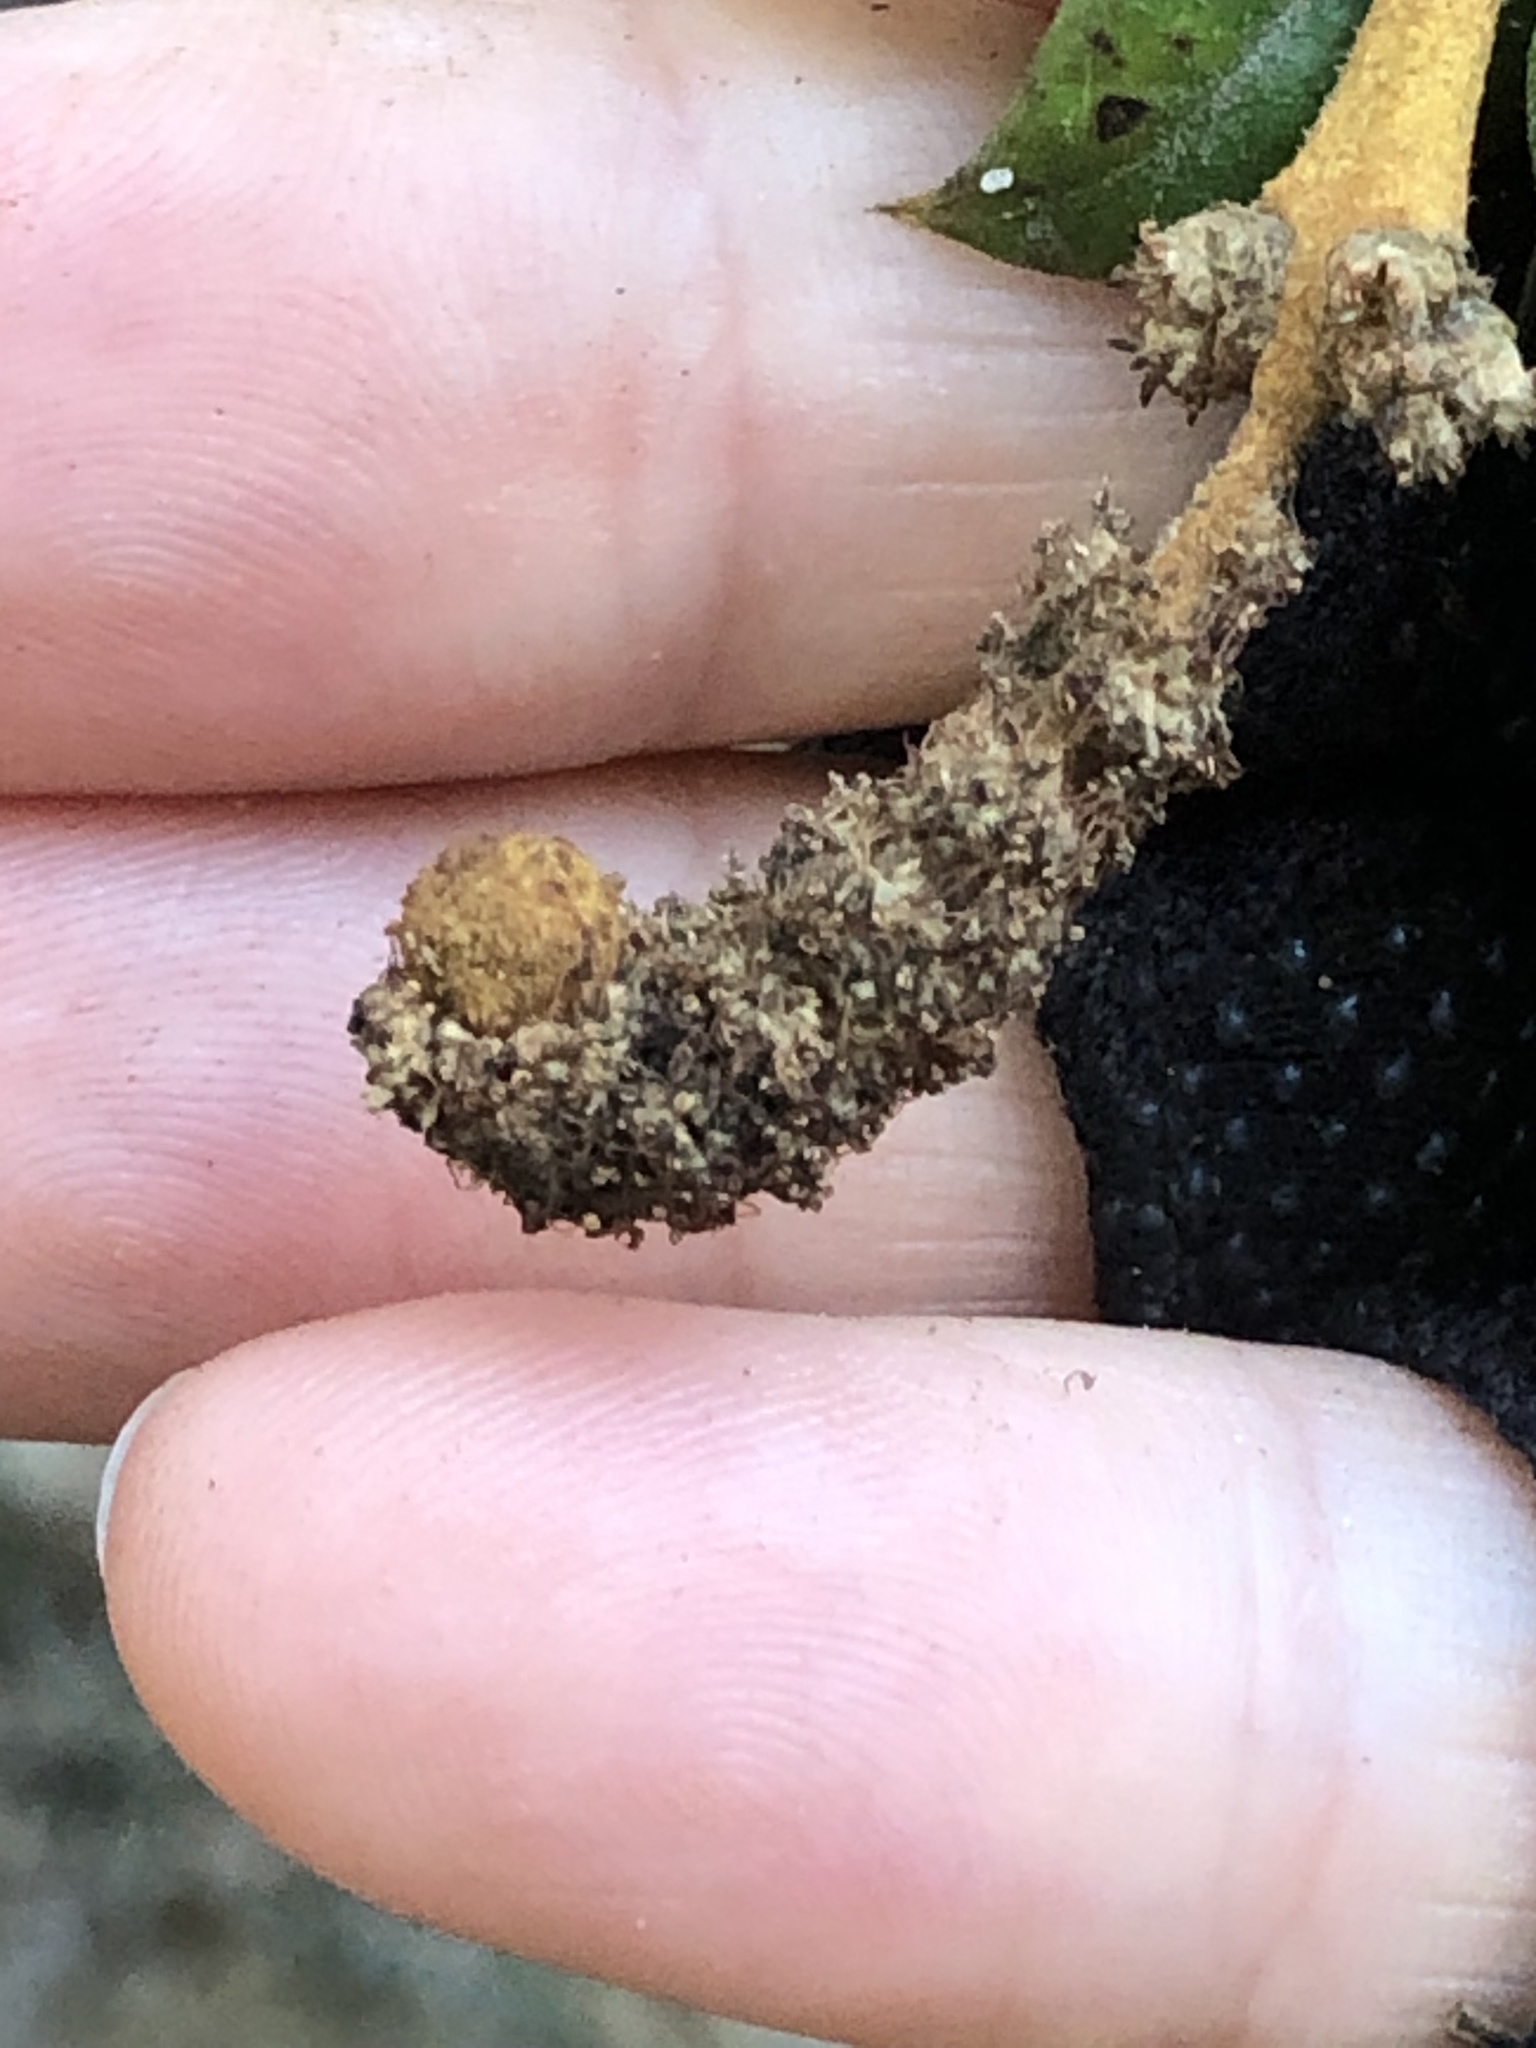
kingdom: Animalia
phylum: Arthropoda
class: Insecta
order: Hymenoptera
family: Cynipidae
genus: Synergus
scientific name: Synergus castanopsidis
